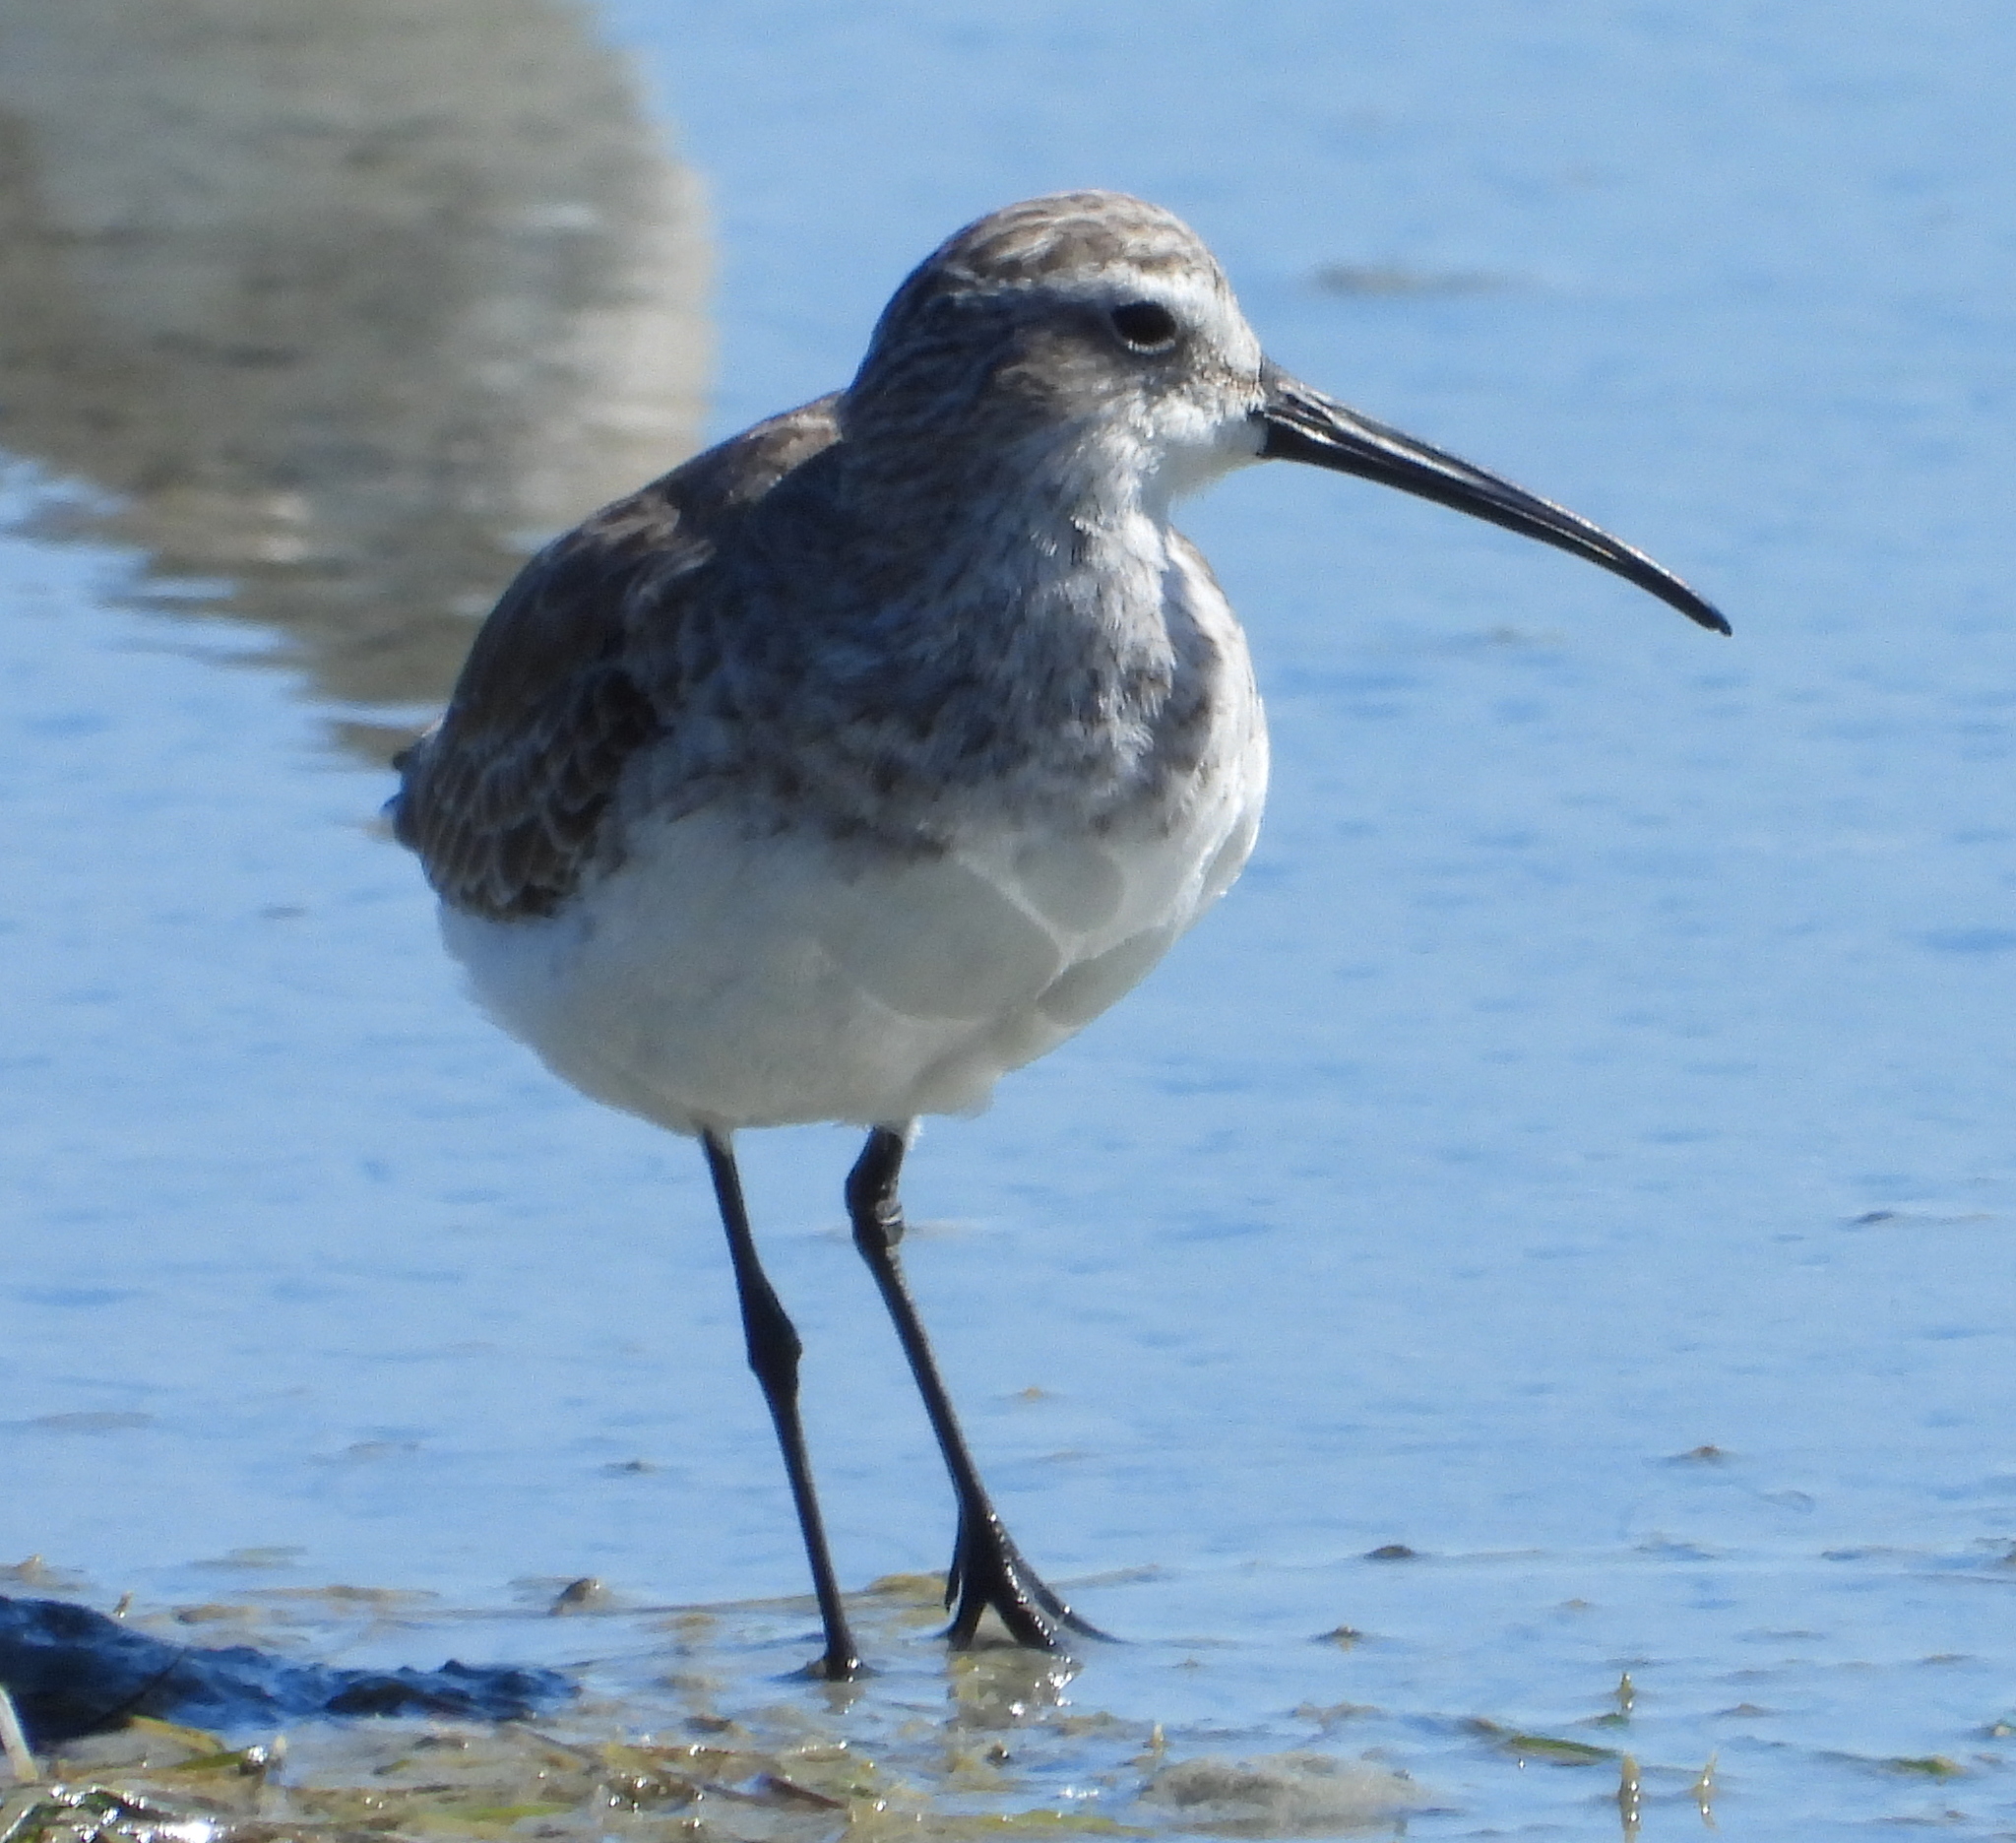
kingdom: Animalia
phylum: Chordata
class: Aves
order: Charadriiformes
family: Scolopacidae
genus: Calidris
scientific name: Calidris ferruginea
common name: Curlew sandpiper
